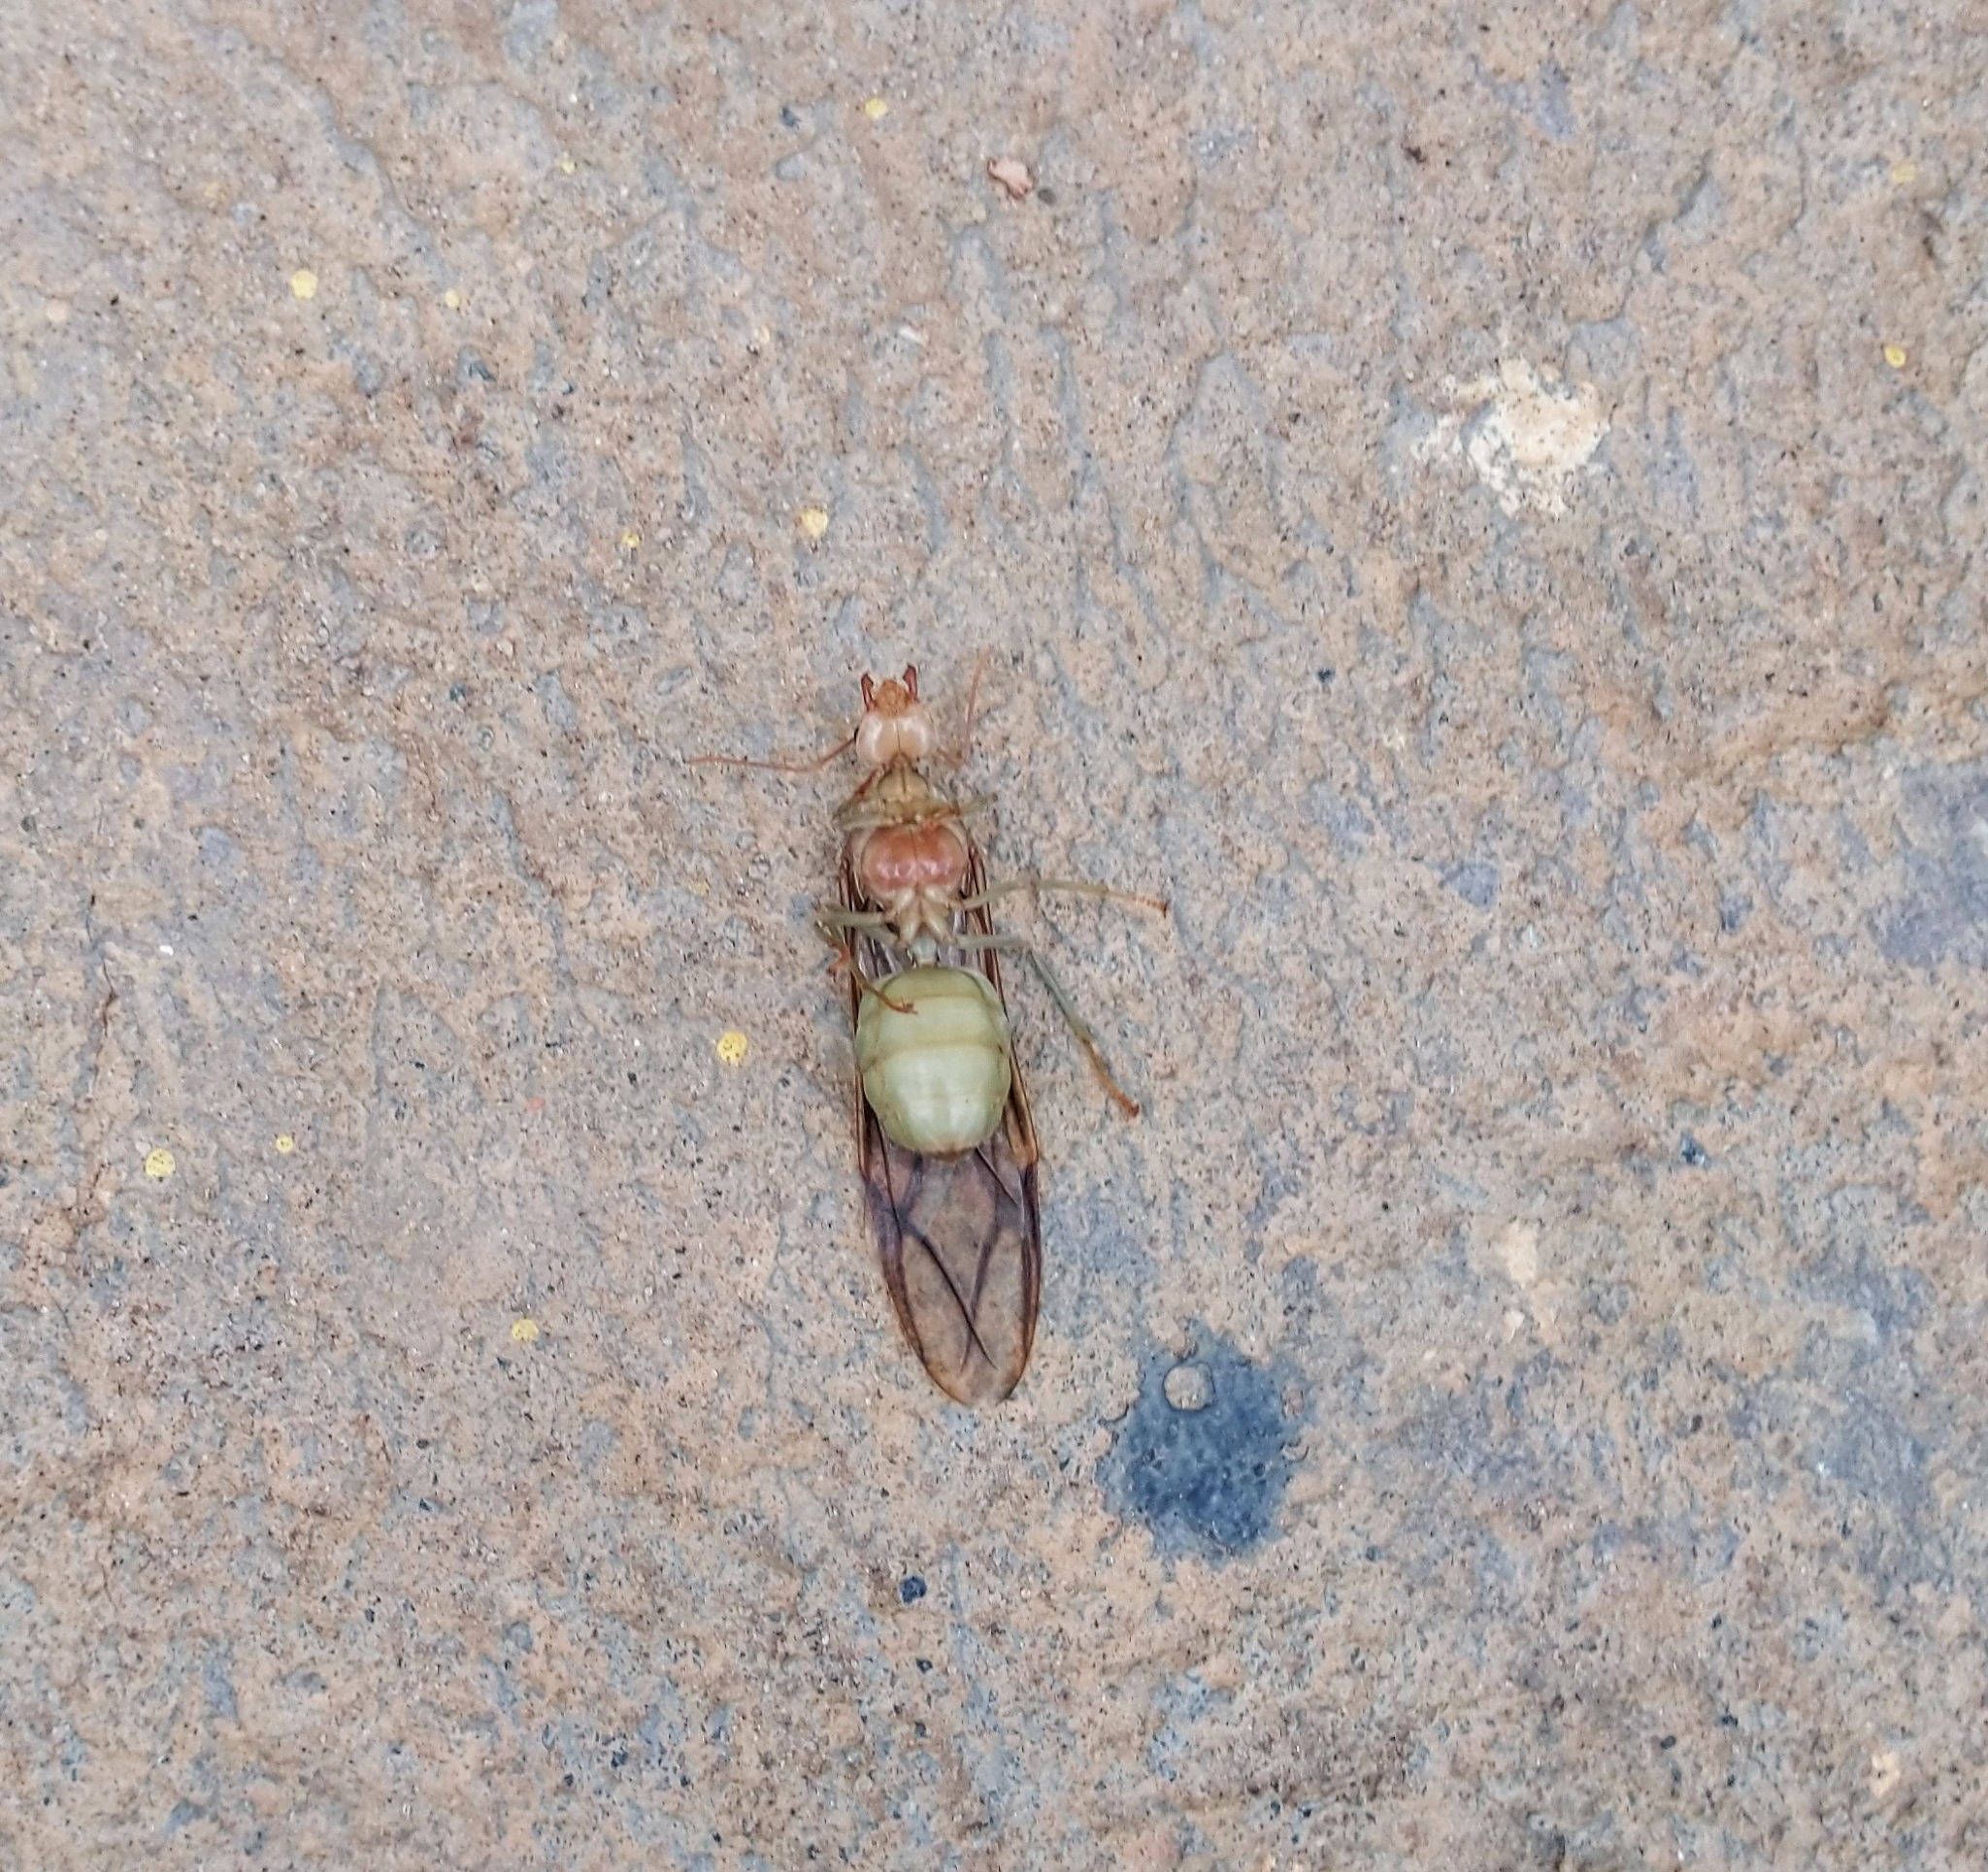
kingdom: Animalia
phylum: Arthropoda
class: Insecta
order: Hymenoptera
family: Formicidae
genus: Oecophylla
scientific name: Oecophylla smaragdina
